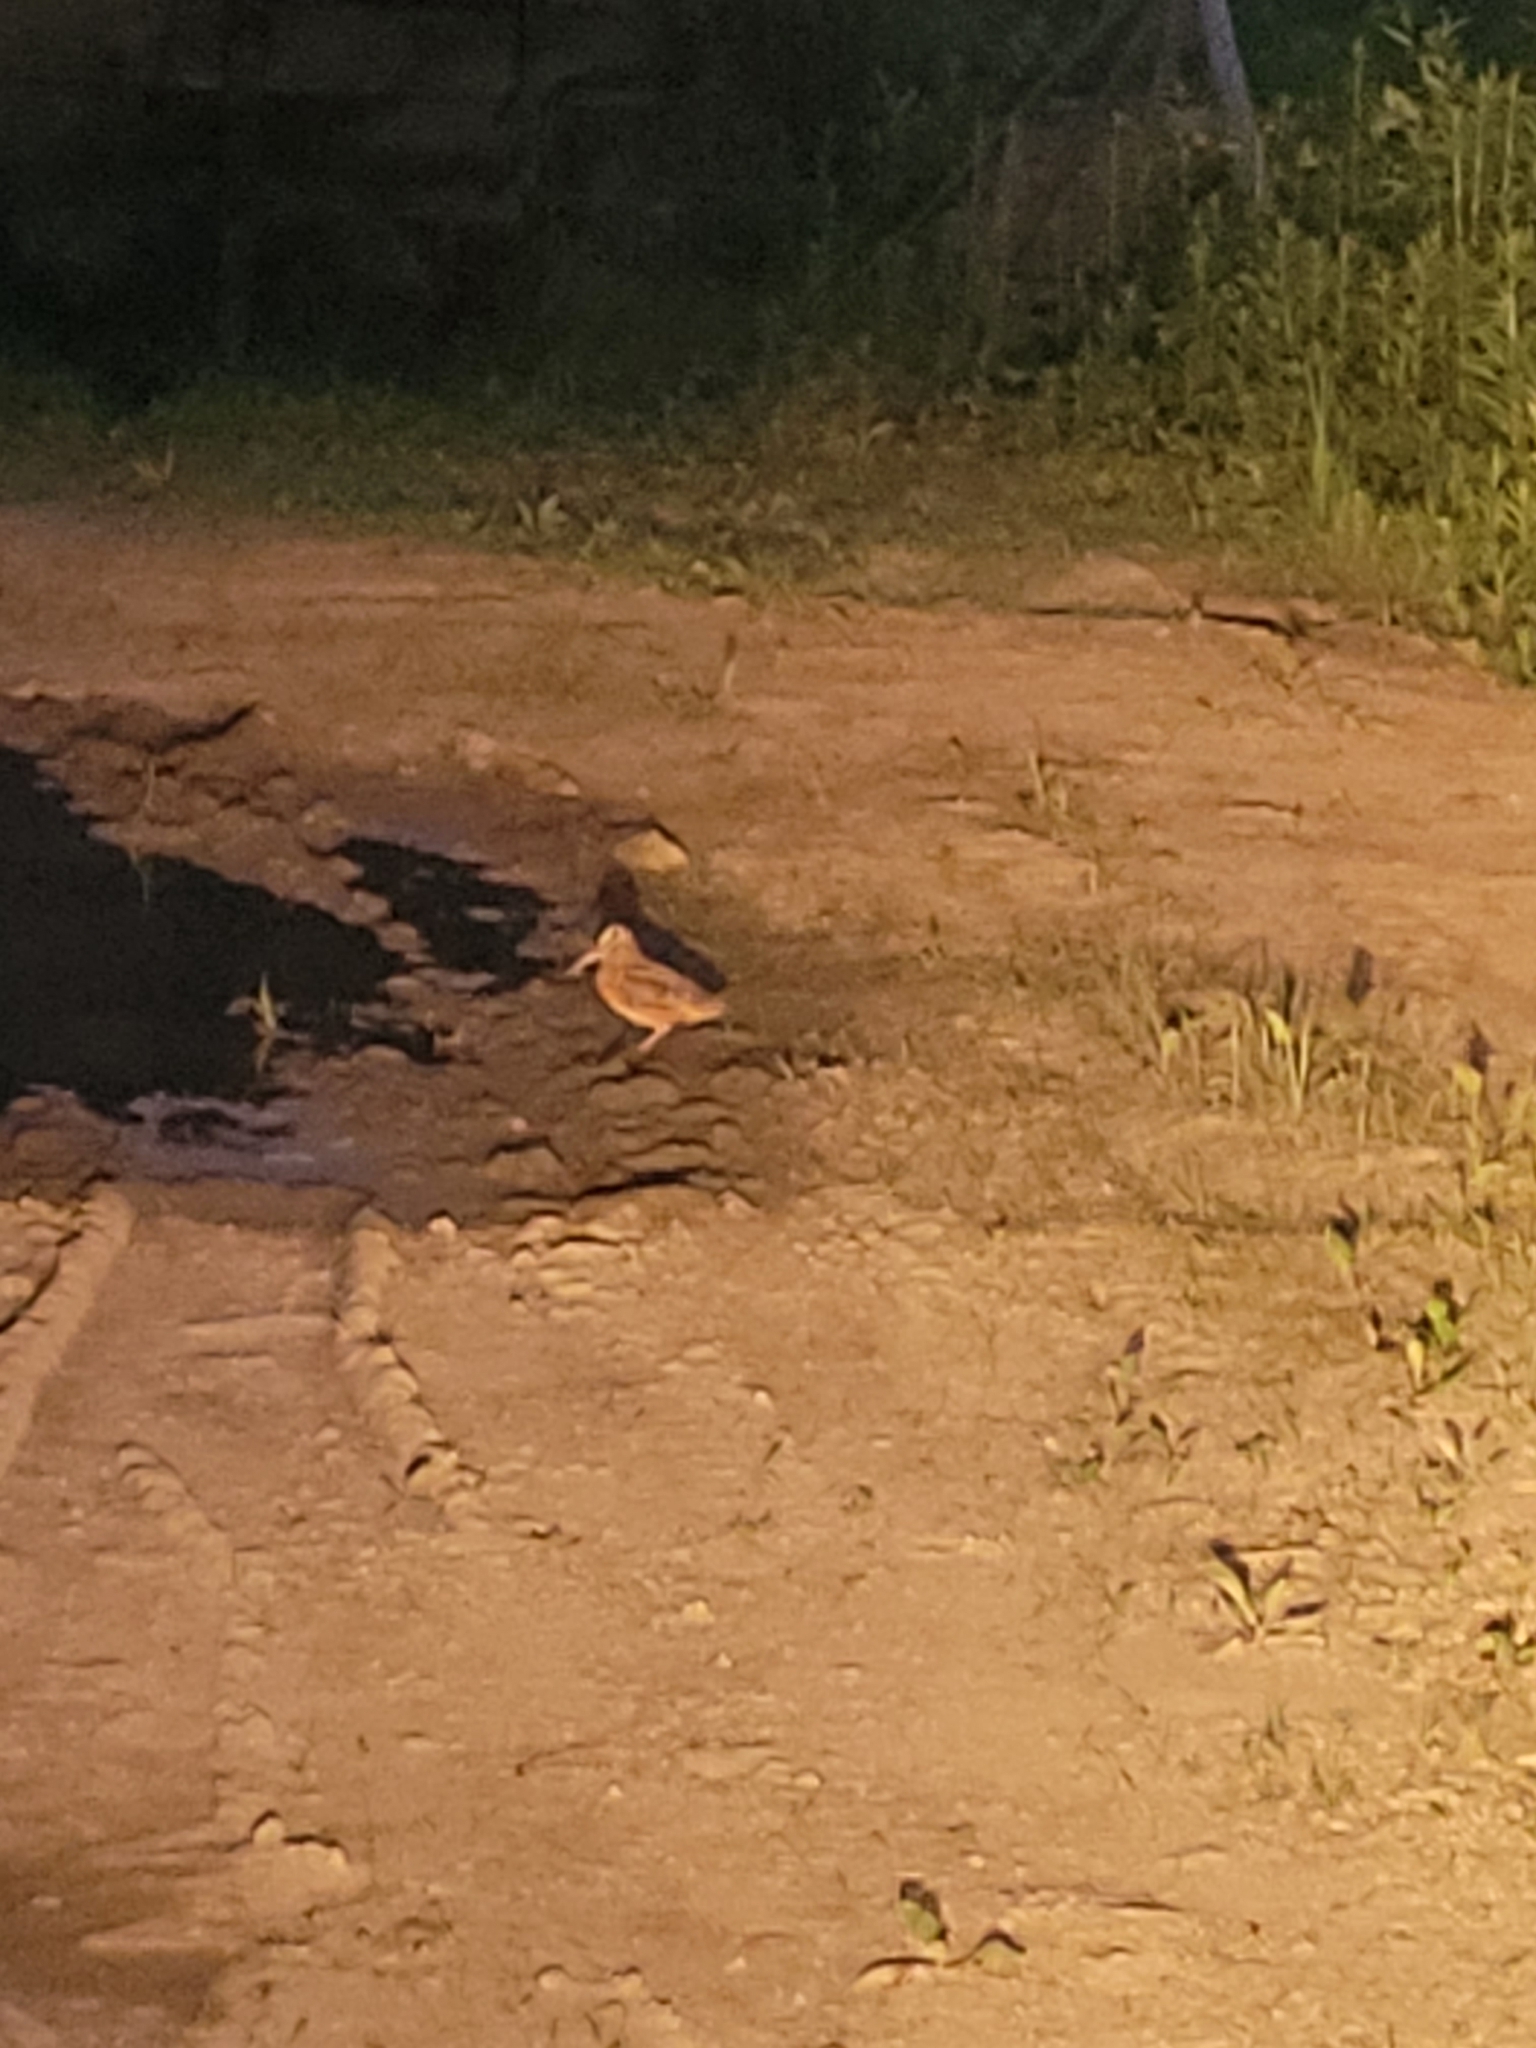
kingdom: Animalia
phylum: Chordata
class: Aves
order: Charadriiformes
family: Scolopacidae
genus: Scolopax
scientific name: Scolopax minor
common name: American woodcock
